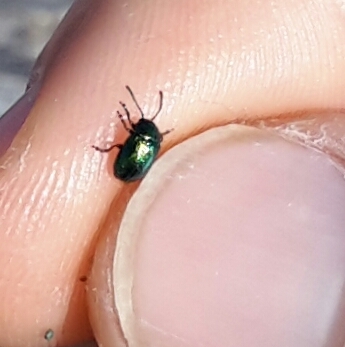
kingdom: Animalia
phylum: Arthropoda
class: Insecta
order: Coleoptera
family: Chrysomelidae
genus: Gastrophysa
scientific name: Gastrophysa cyanea
